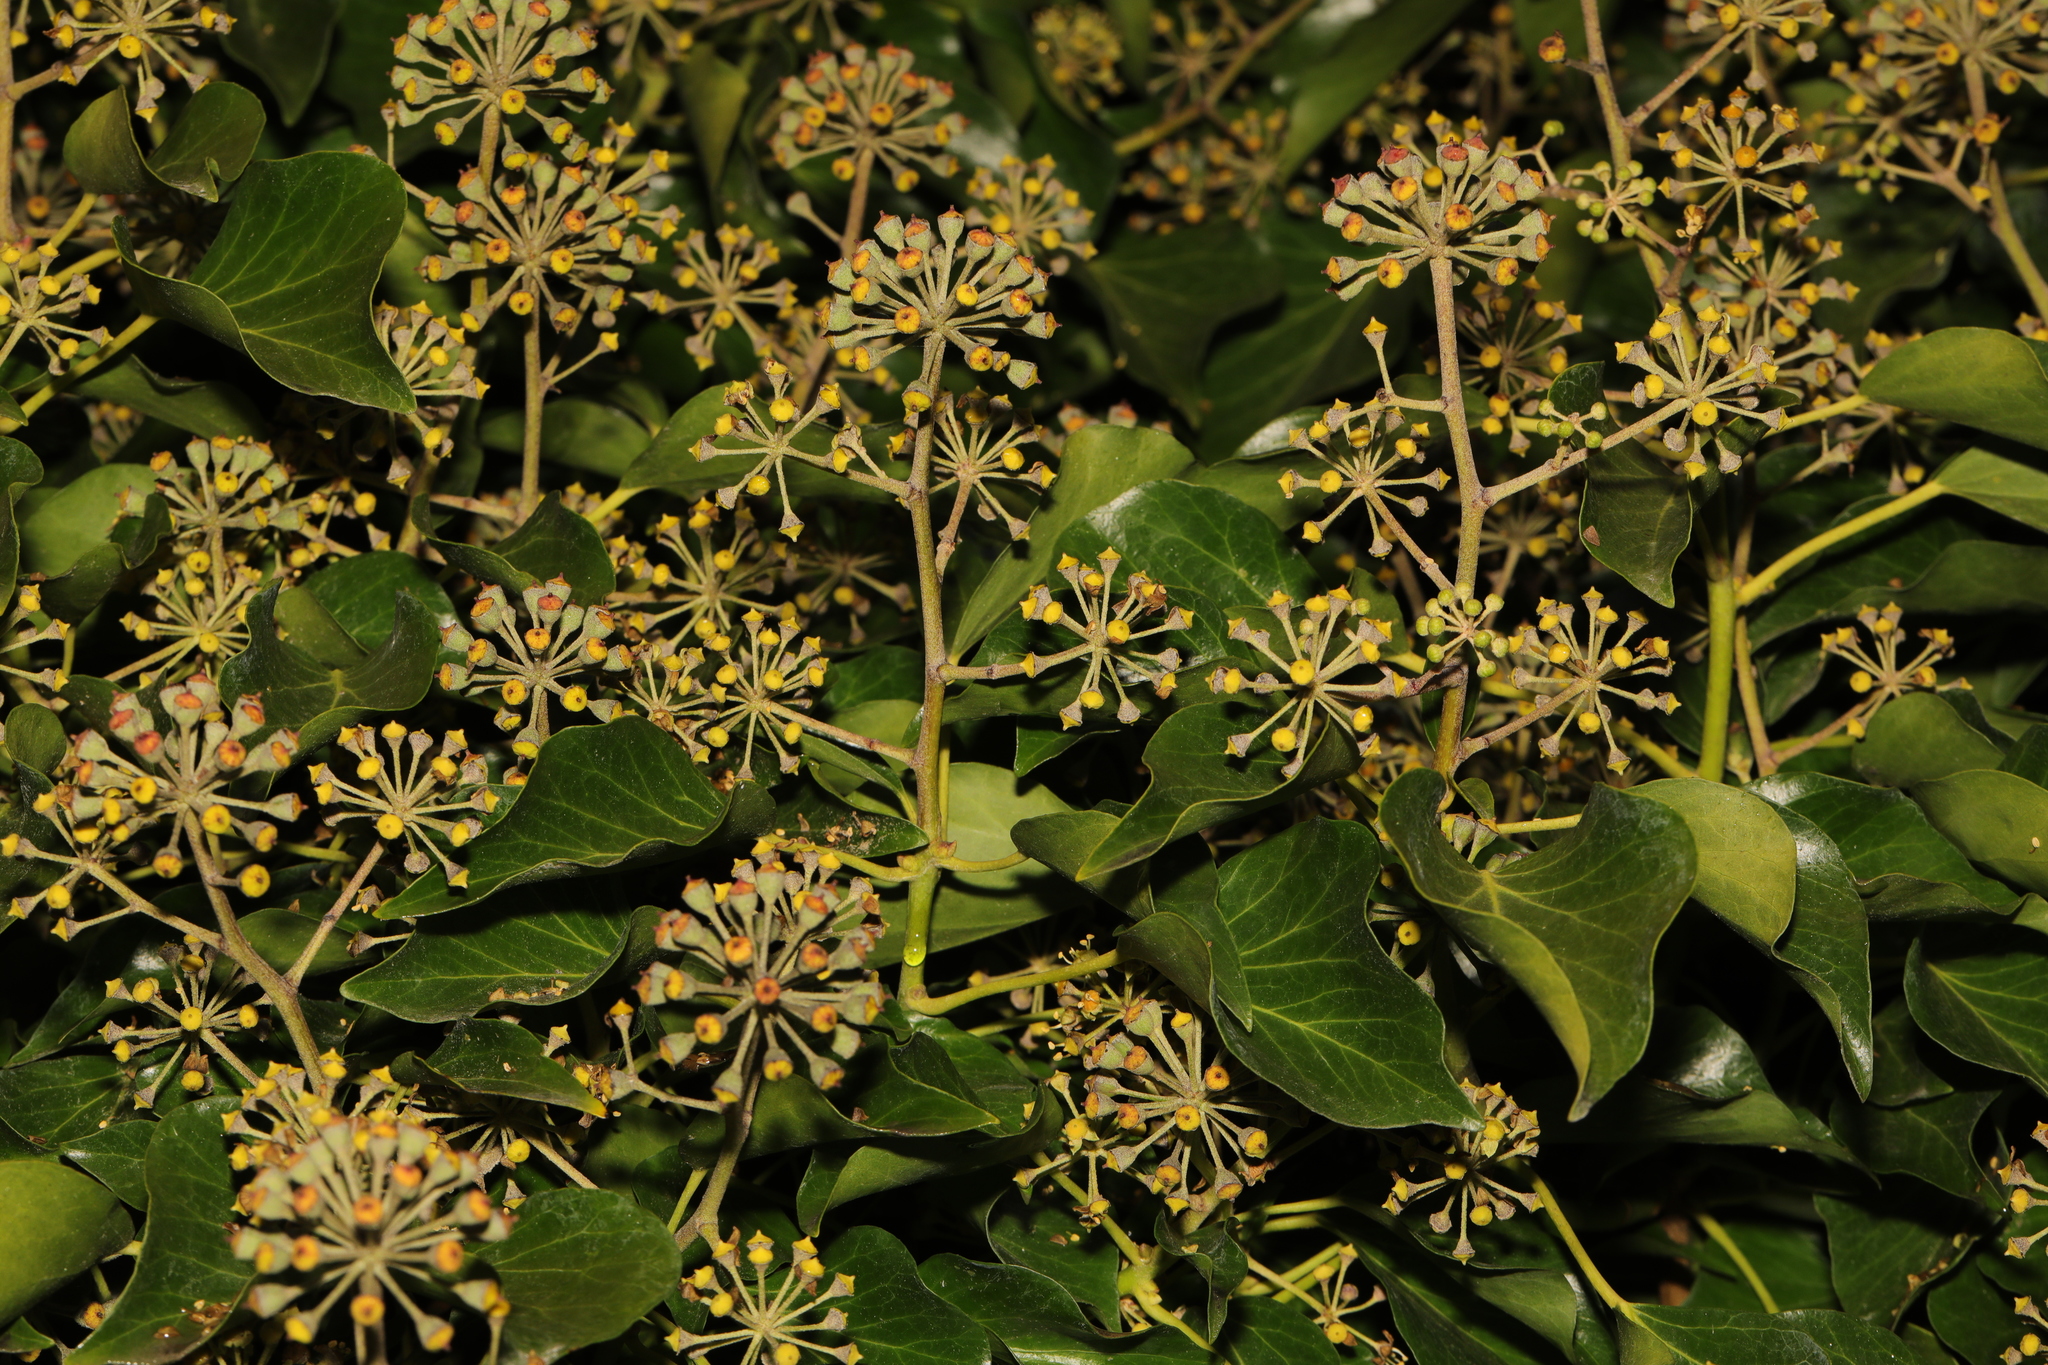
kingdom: Plantae
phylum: Tracheophyta
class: Magnoliopsida
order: Apiales
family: Araliaceae
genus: Hedera
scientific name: Hedera helix
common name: Ivy
